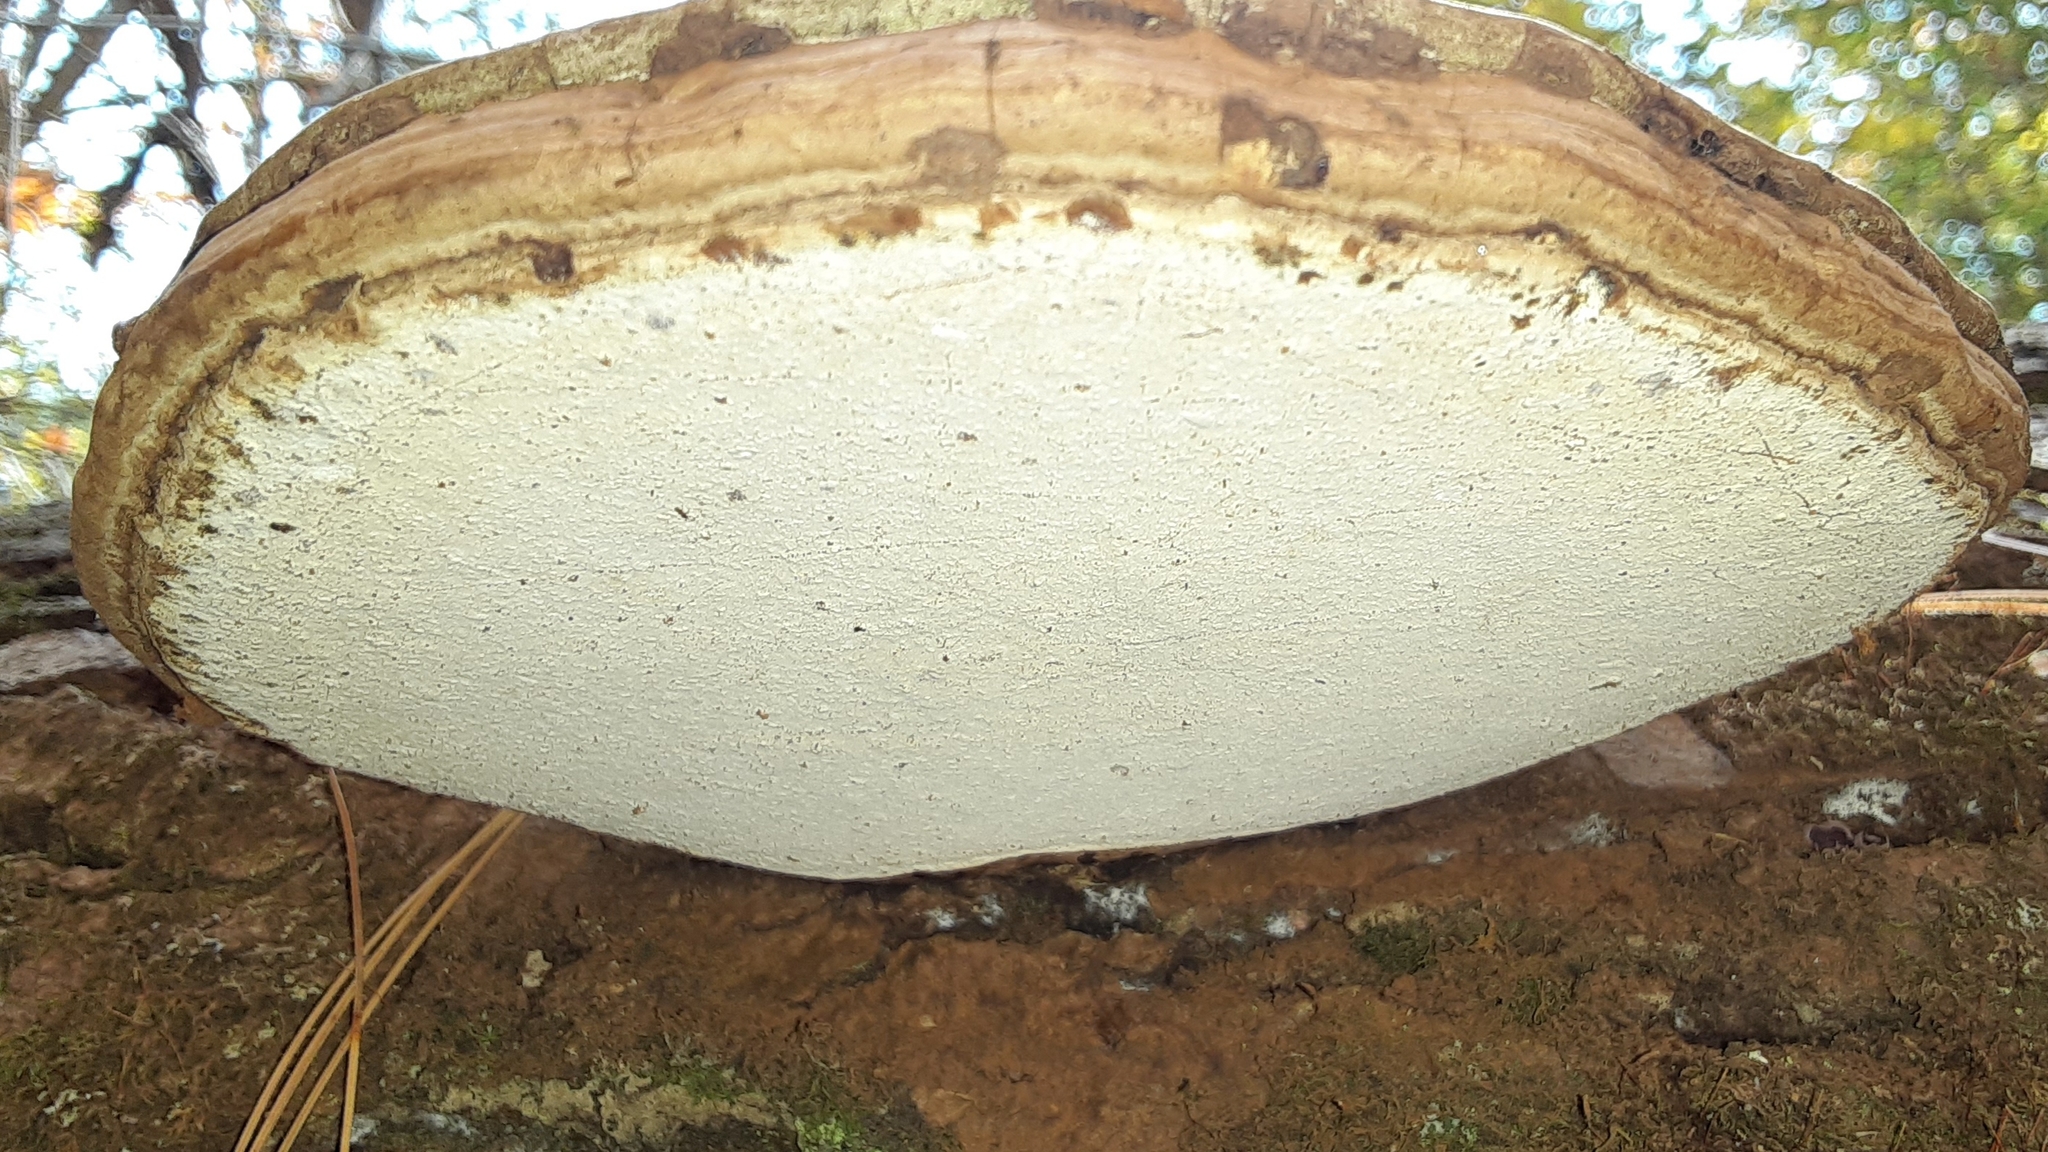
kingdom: Fungi
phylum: Basidiomycota
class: Agaricomycetes
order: Polyporales
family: Polyporaceae
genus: Ganoderma
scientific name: Ganoderma applanatum
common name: Artist's bracket
